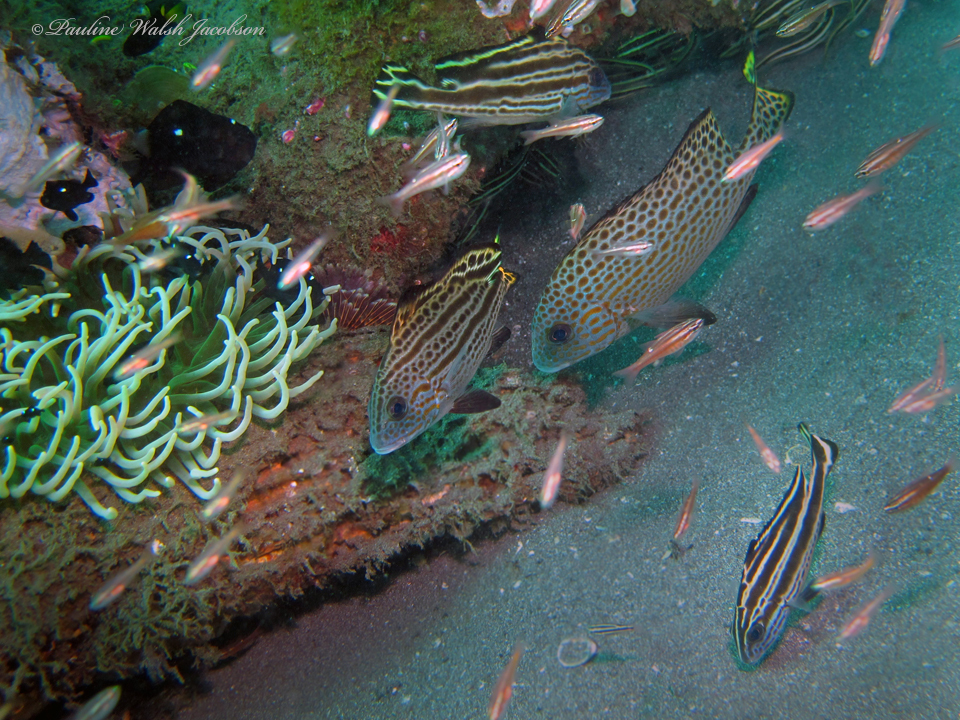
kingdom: Animalia
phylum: Chordata
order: Perciformes
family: Haemulidae
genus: Diagramma
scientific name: Diagramma melanacrum
